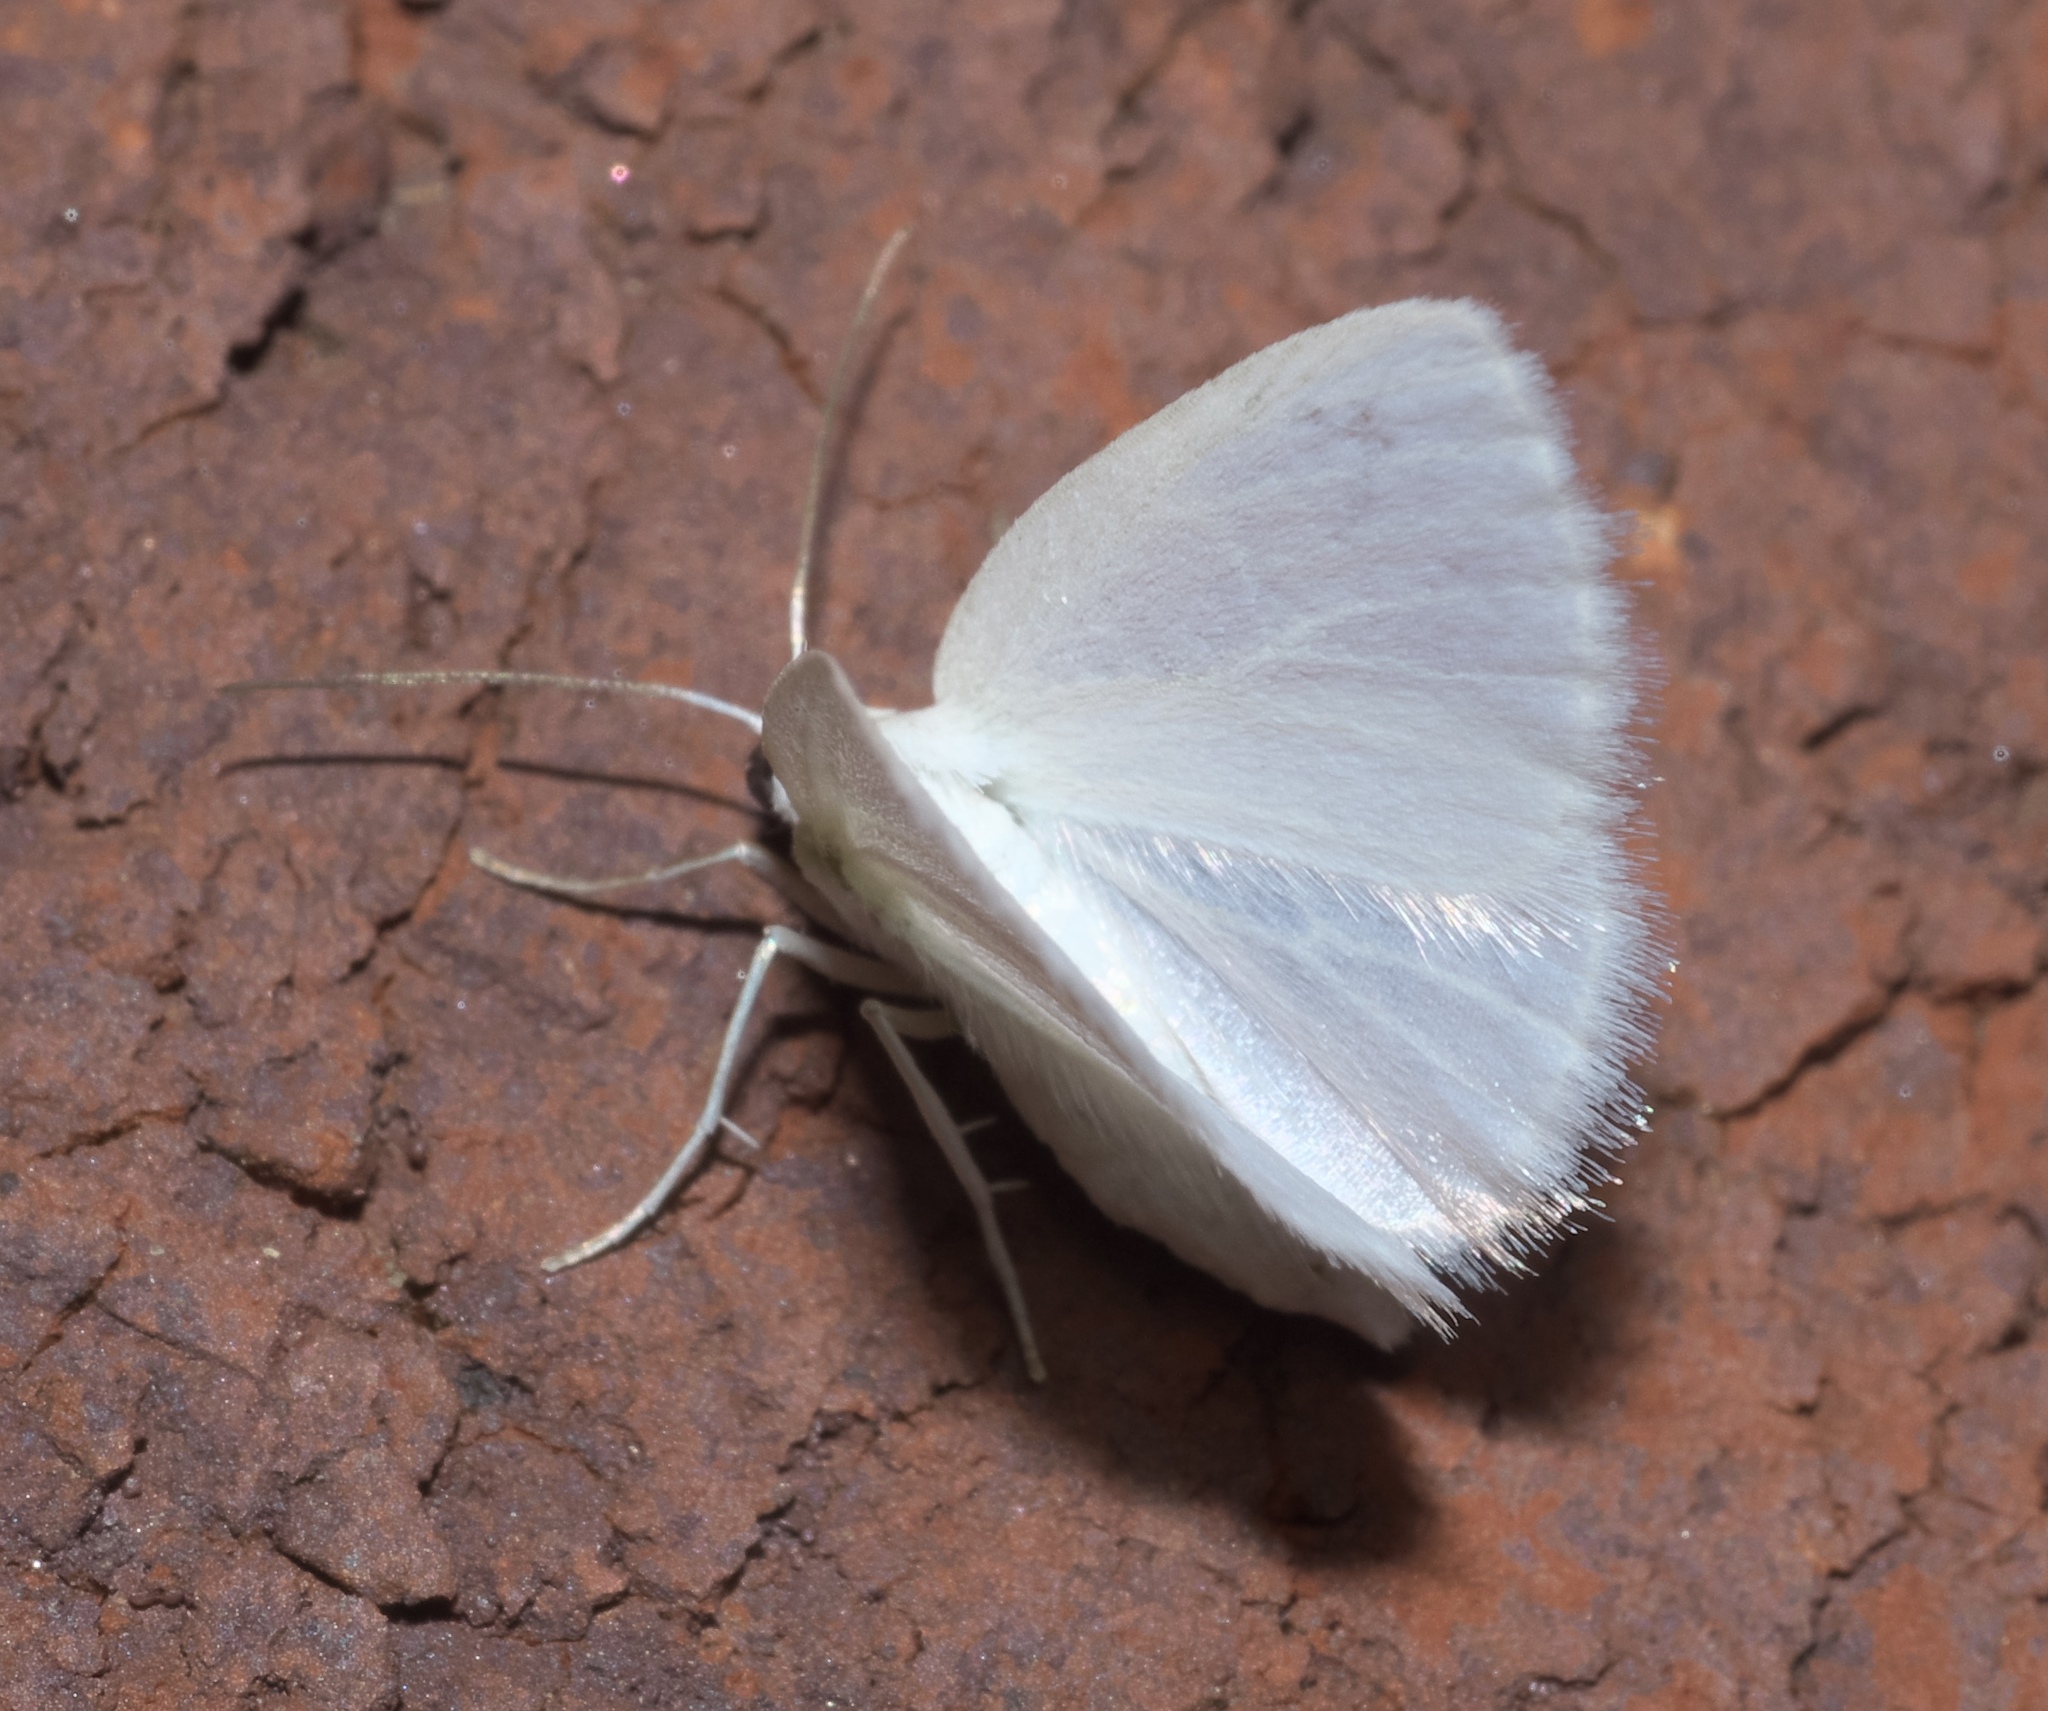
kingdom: Animalia
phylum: Arthropoda
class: Insecta
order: Lepidoptera
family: Geometridae
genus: Lomographa
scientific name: Lomographa vestaliata
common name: White spring moth
